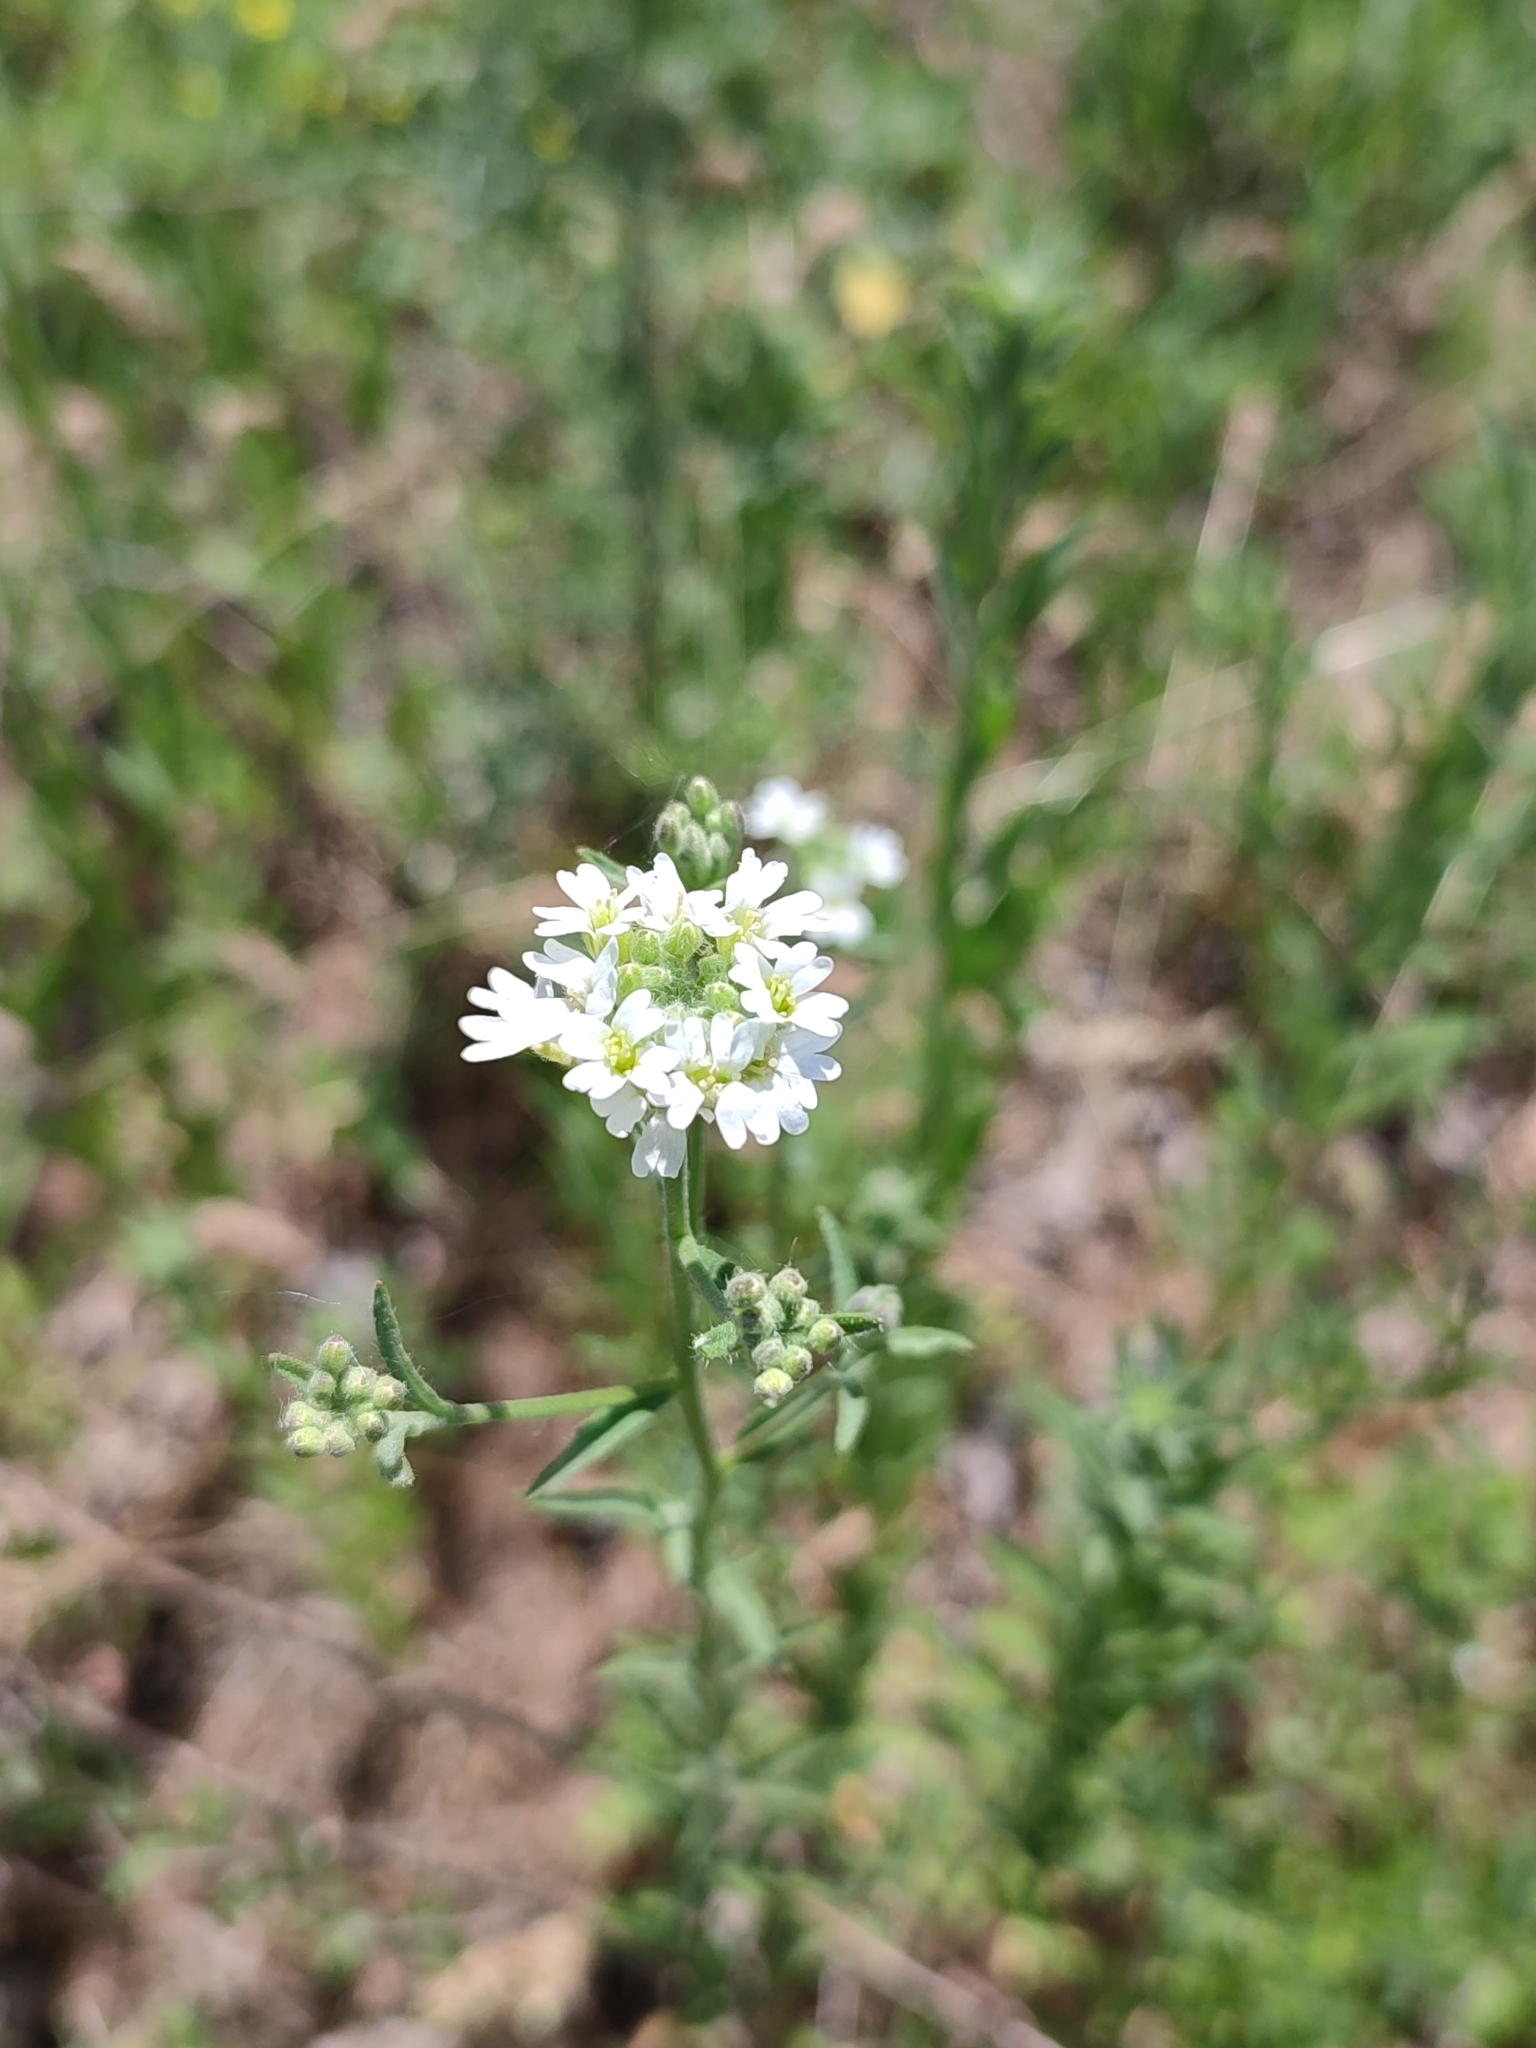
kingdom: Plantae
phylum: Tracheophyta
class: Magnoliopsida
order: Brassicales
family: Brassicaceae
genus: Berteroa
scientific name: Berteroa incana
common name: Hoary alison
